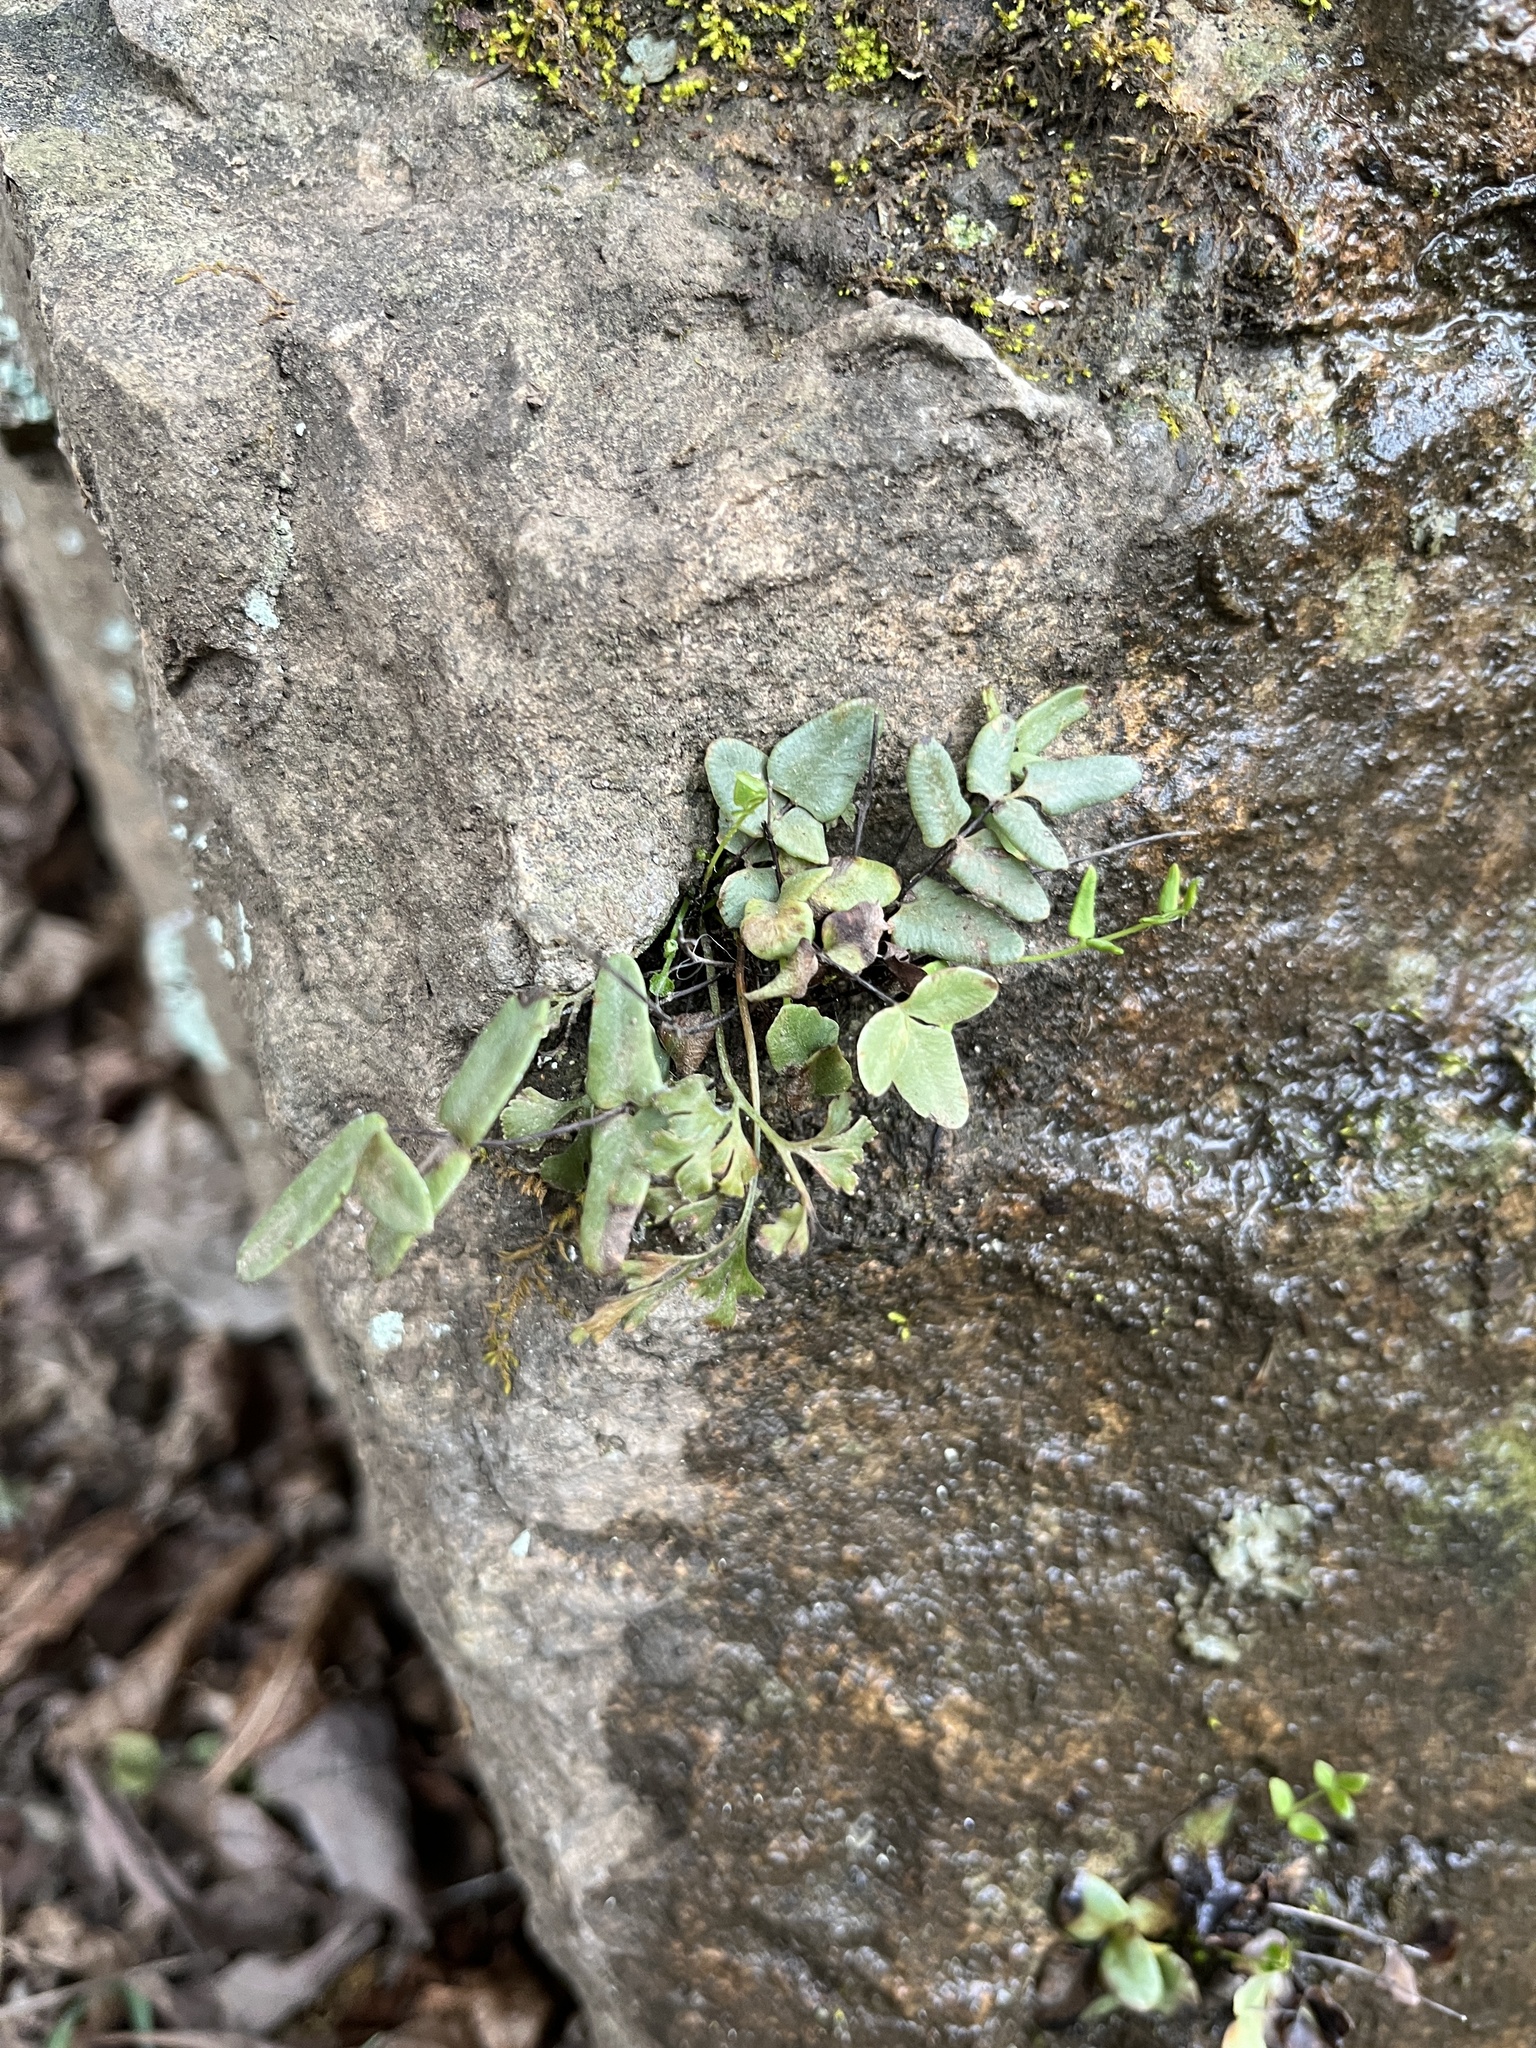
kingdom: Plantae
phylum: Tracheophyta
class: Polypodiopsida
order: Polypodiales
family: Pteridaceae
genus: Pellaea
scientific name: Pellaea atropurpurea
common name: Hairy cliffbrake
